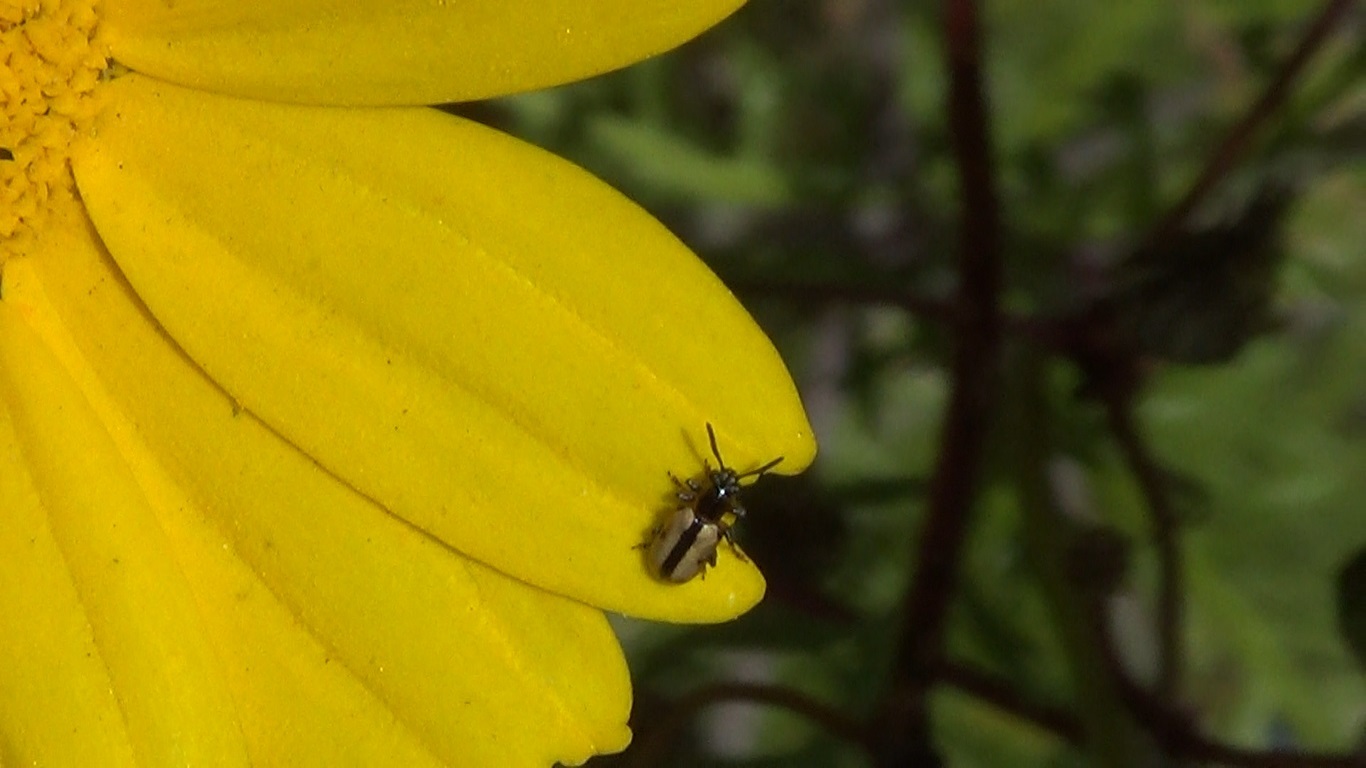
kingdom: Animalia
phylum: Arthropoda
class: Insecta
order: Coleoptera
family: Chrysomelidae
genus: Crioceris
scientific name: Crioceris paracenthesis
